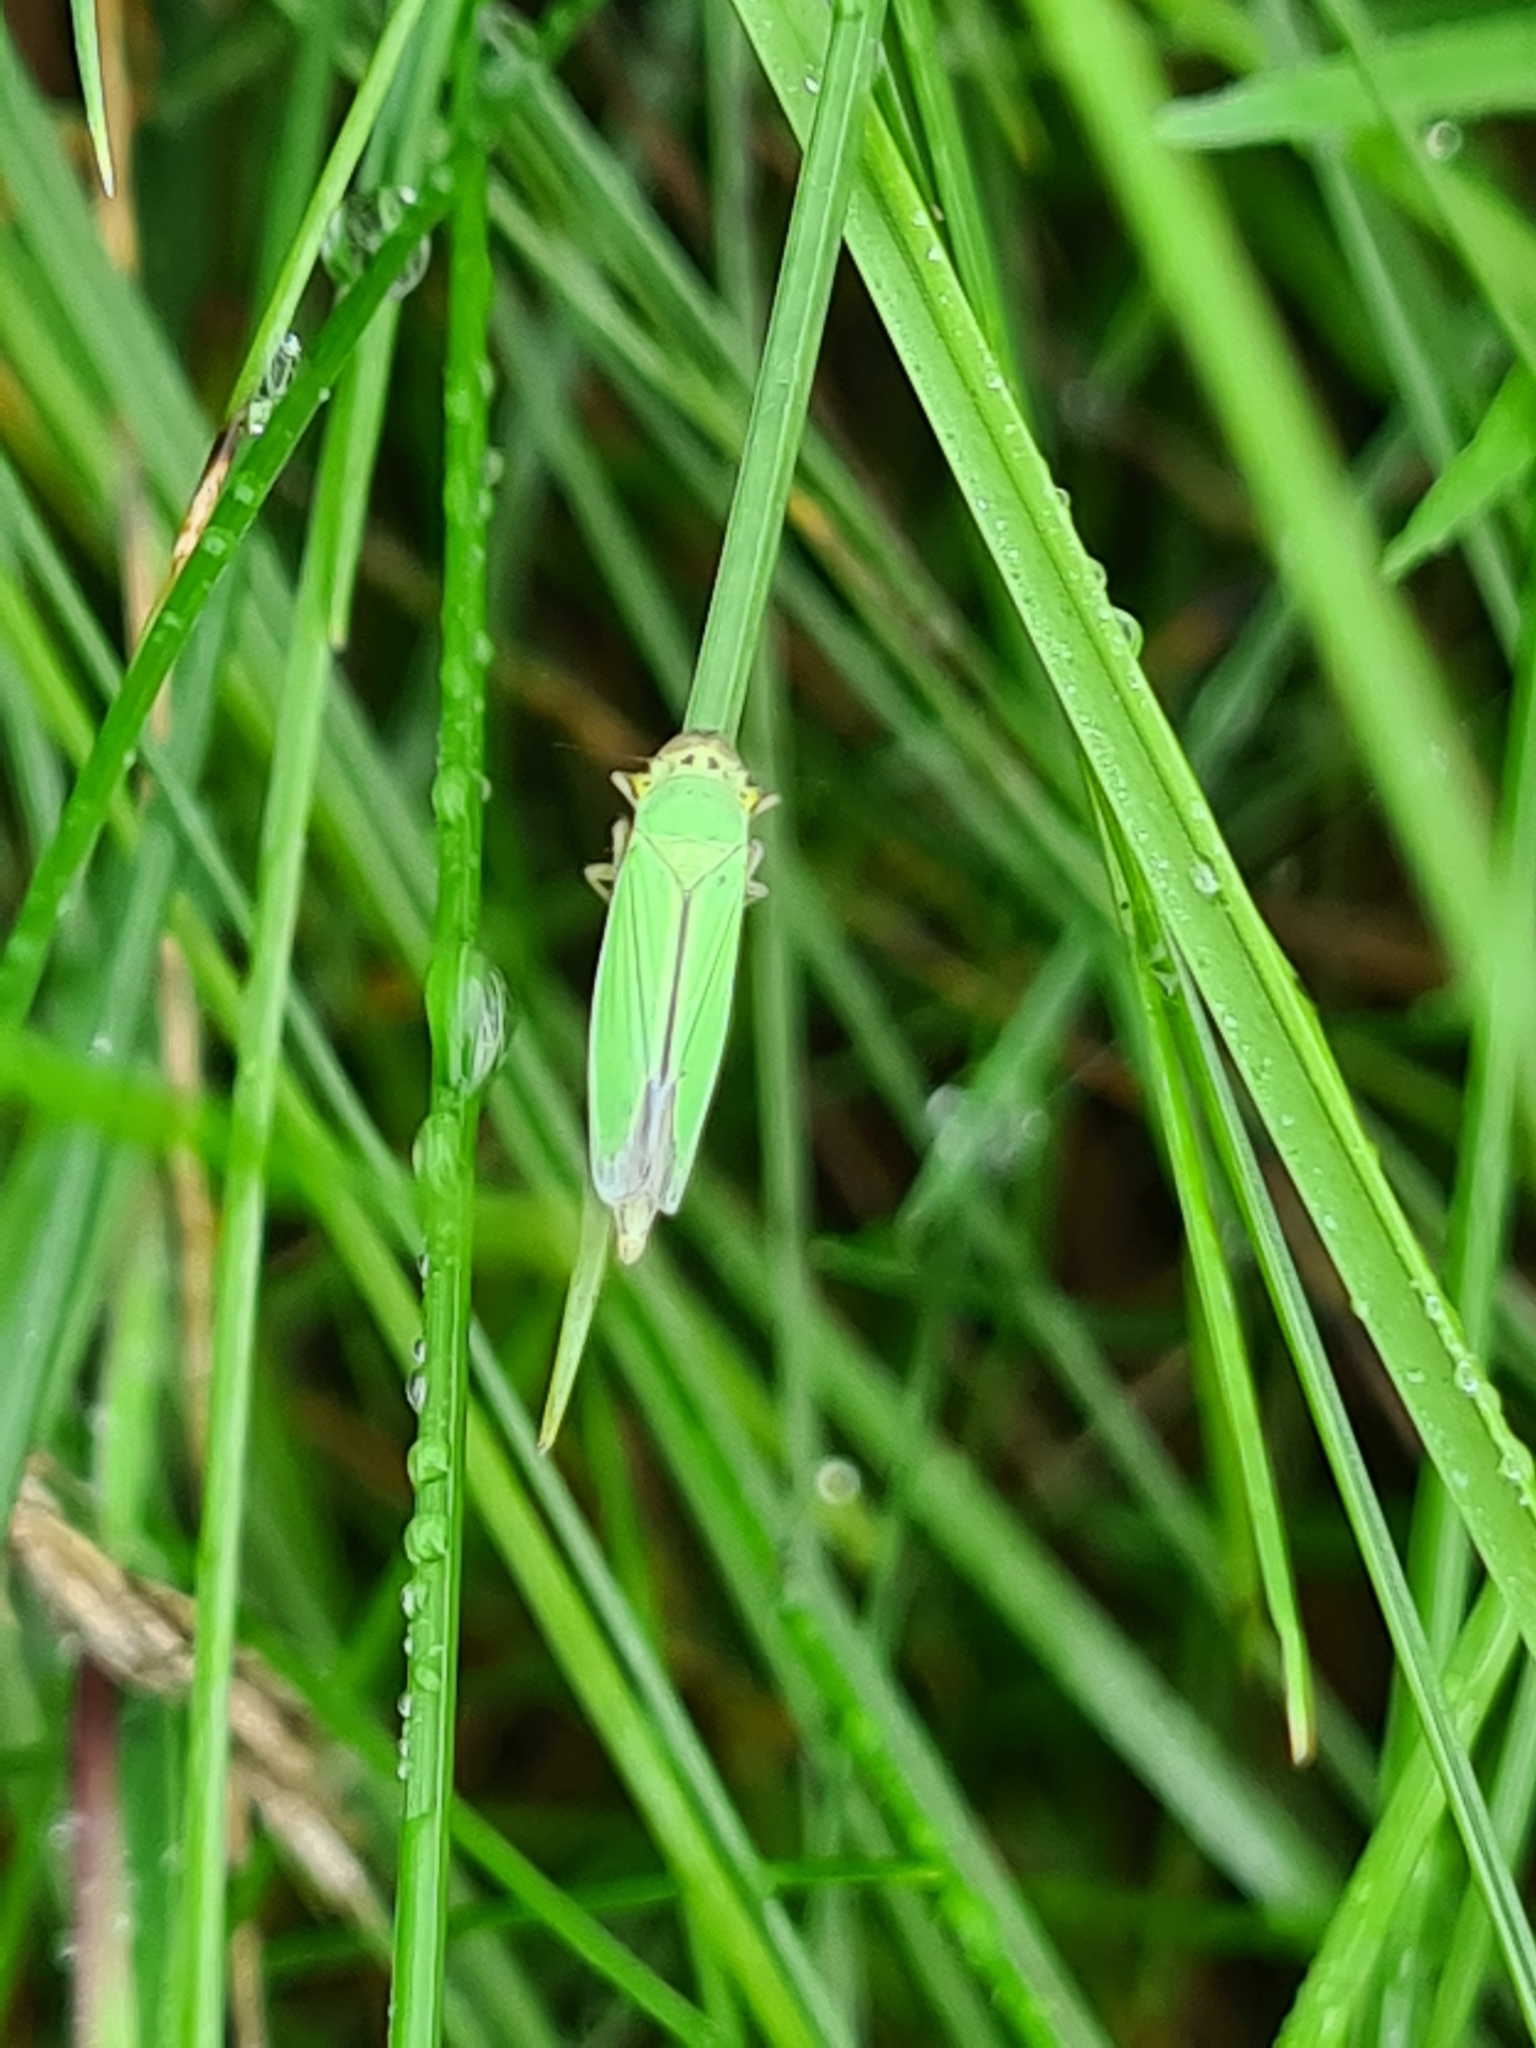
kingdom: Animalia
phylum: Arthropoda
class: Insecta
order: Hemiptera
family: Cicadellidae
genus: Cicadella
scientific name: Cicadella viridis
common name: Leafhopper
